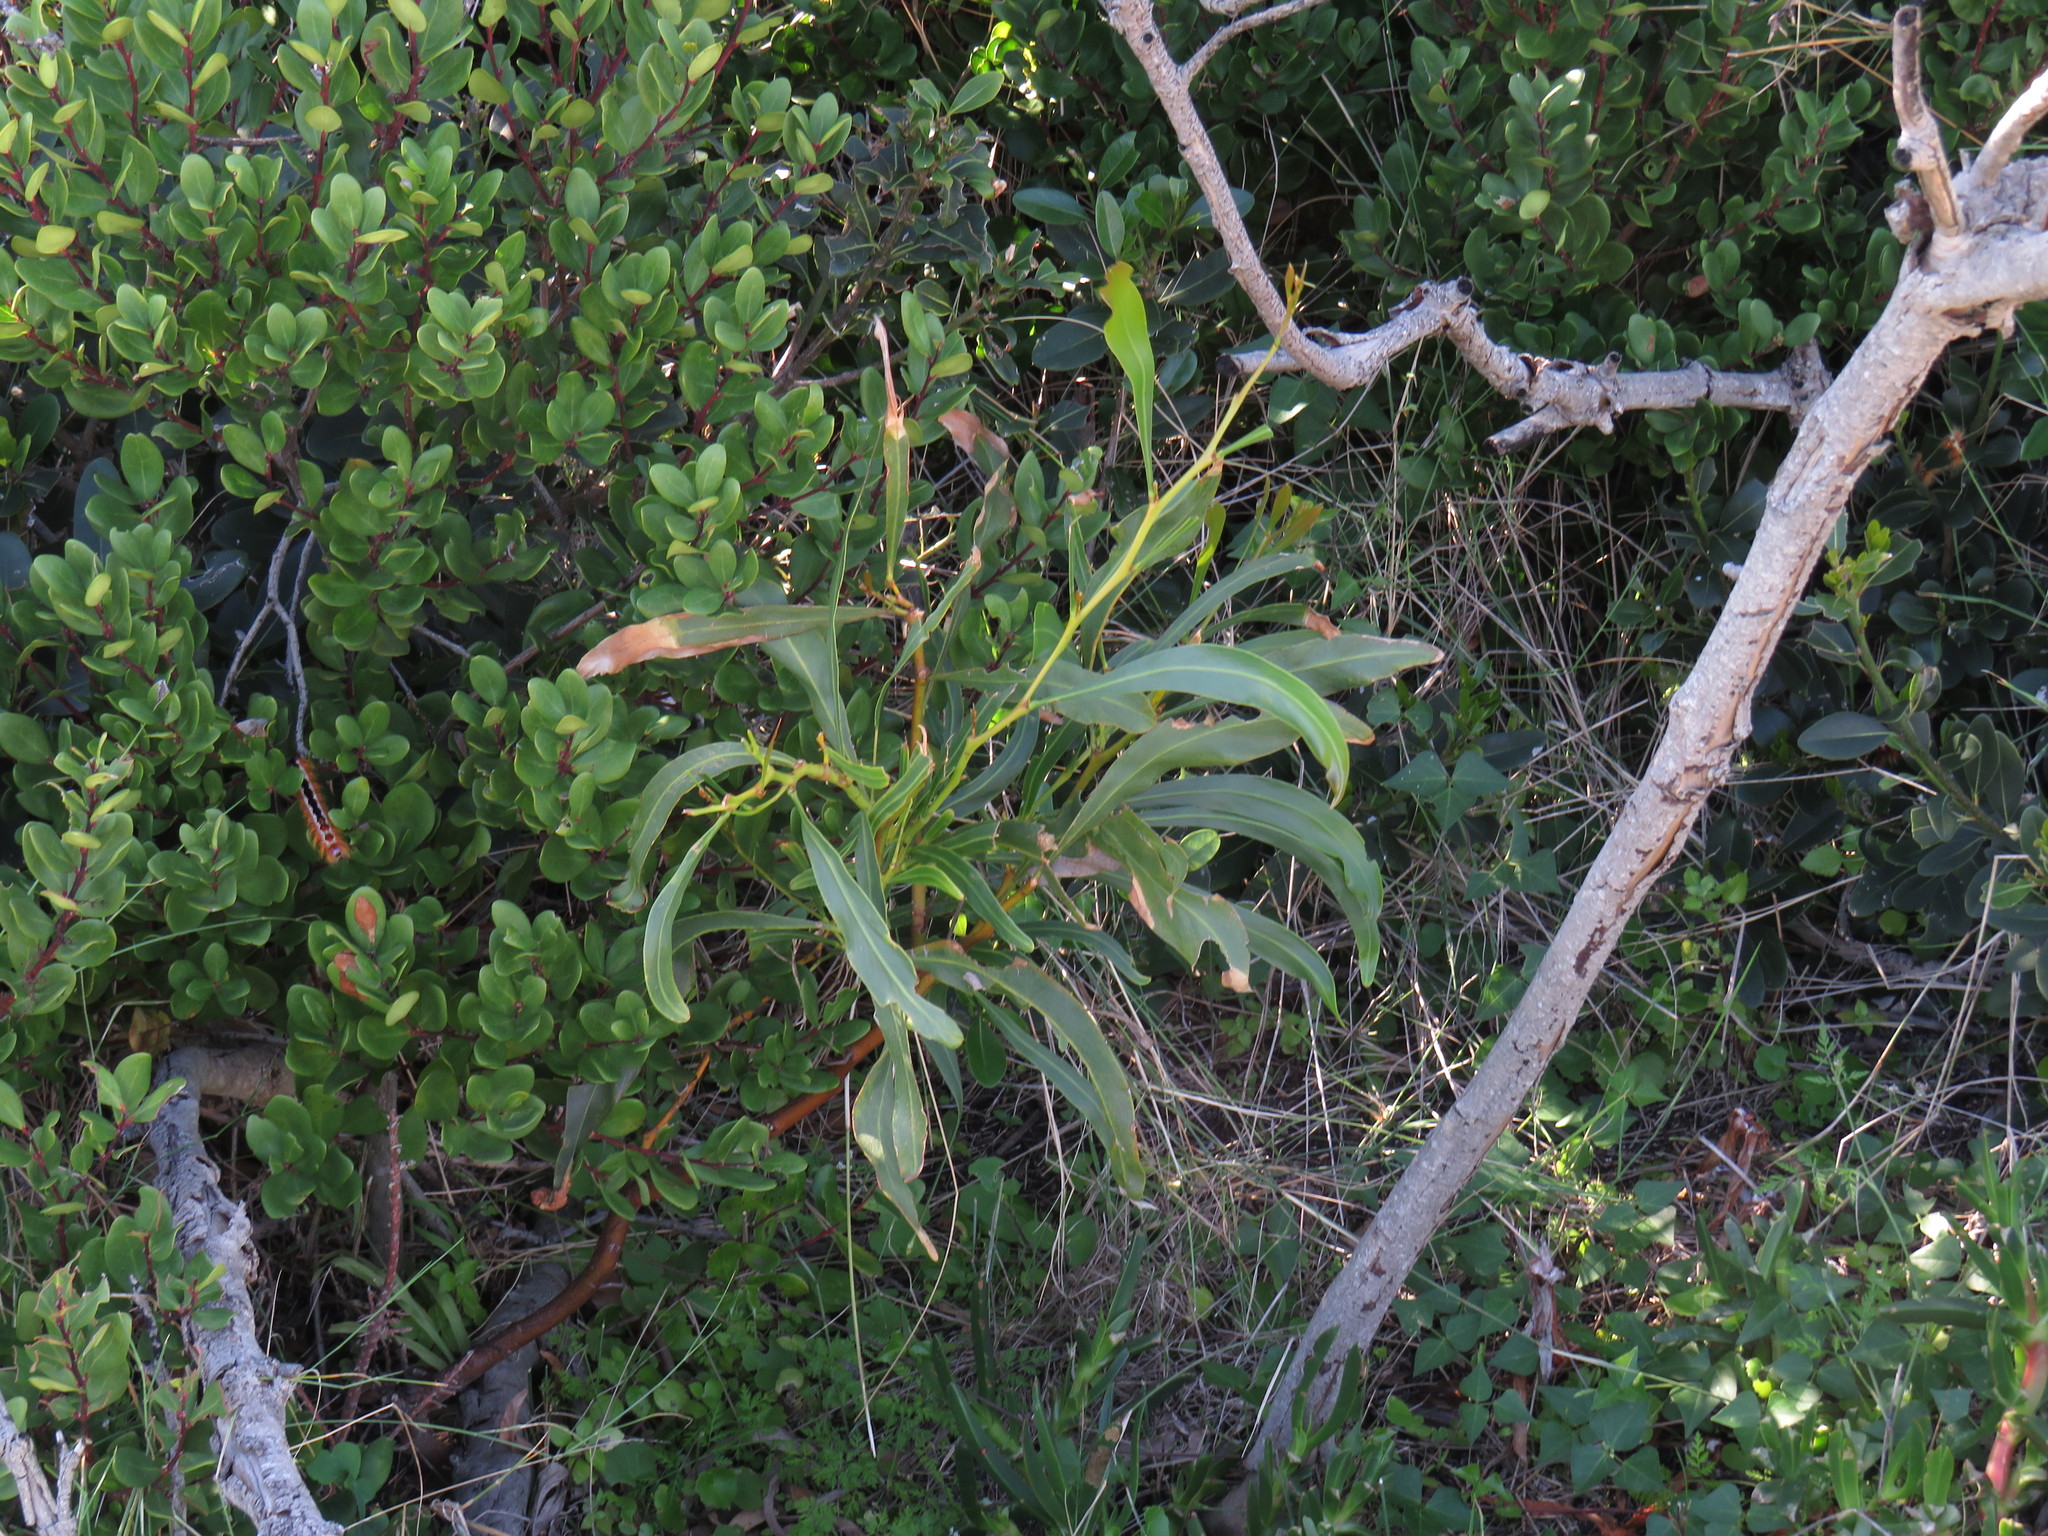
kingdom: Plantae
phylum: Tracheophyta
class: Magnoliopsida
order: Fabales
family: Fabaceae
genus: Acacia
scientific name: Acacia saligna
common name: Orange wattle
